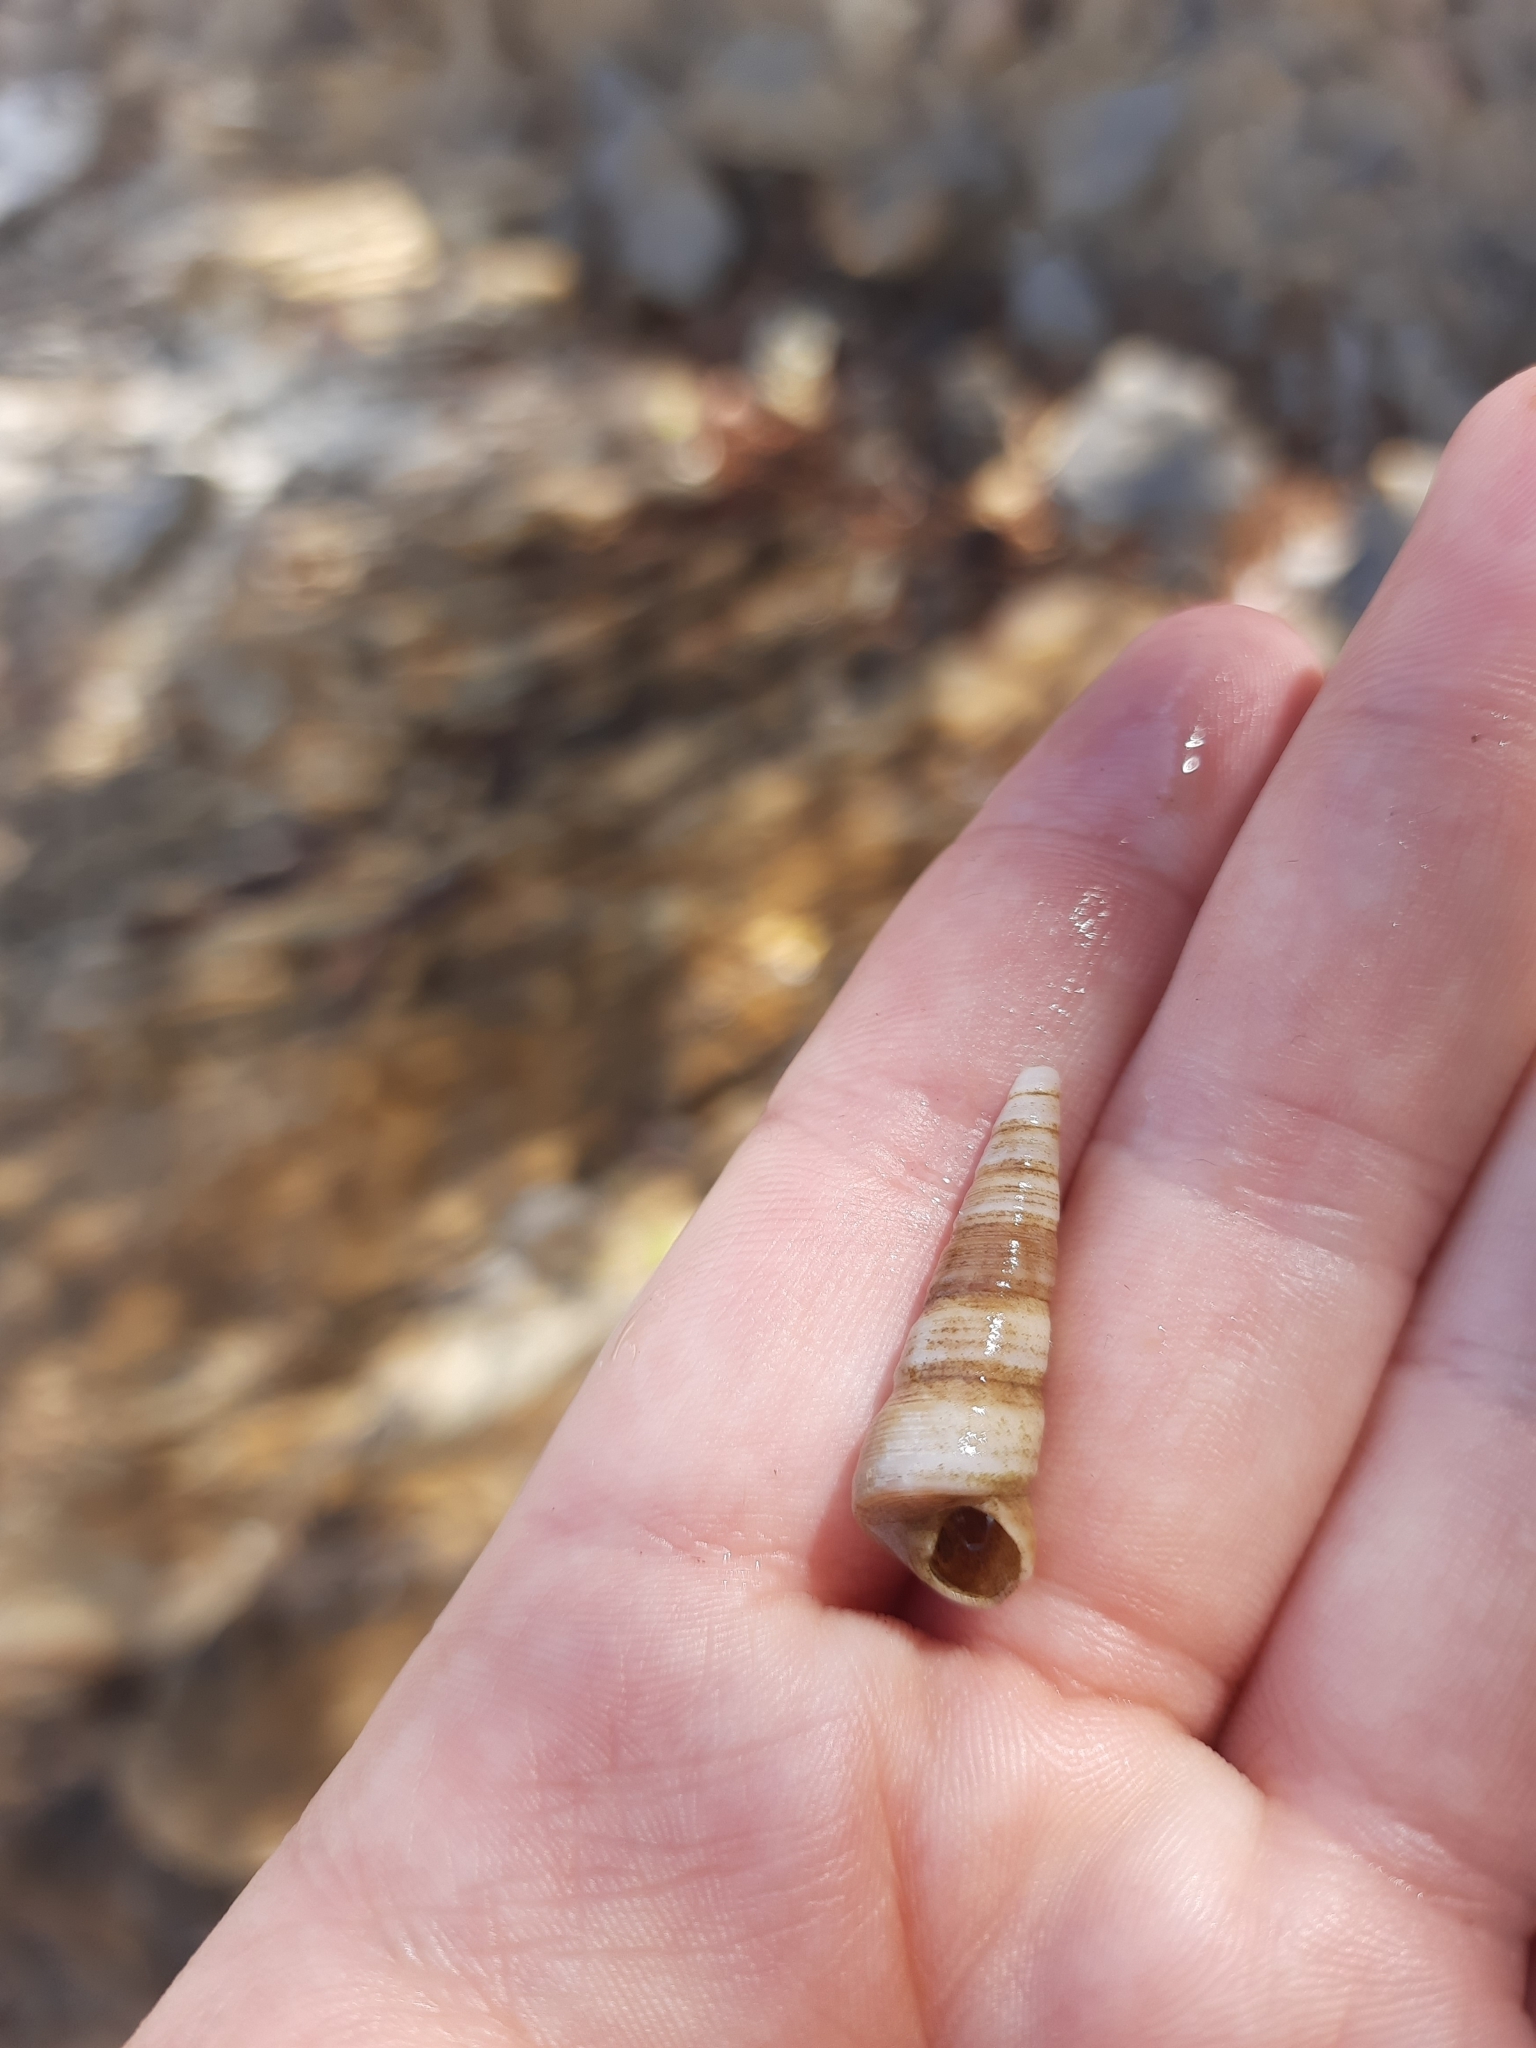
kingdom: Animalia
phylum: Mollusca
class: Gastropoda
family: Turritellidae
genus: Maoricolpus
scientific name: Maoricolpus roseus
